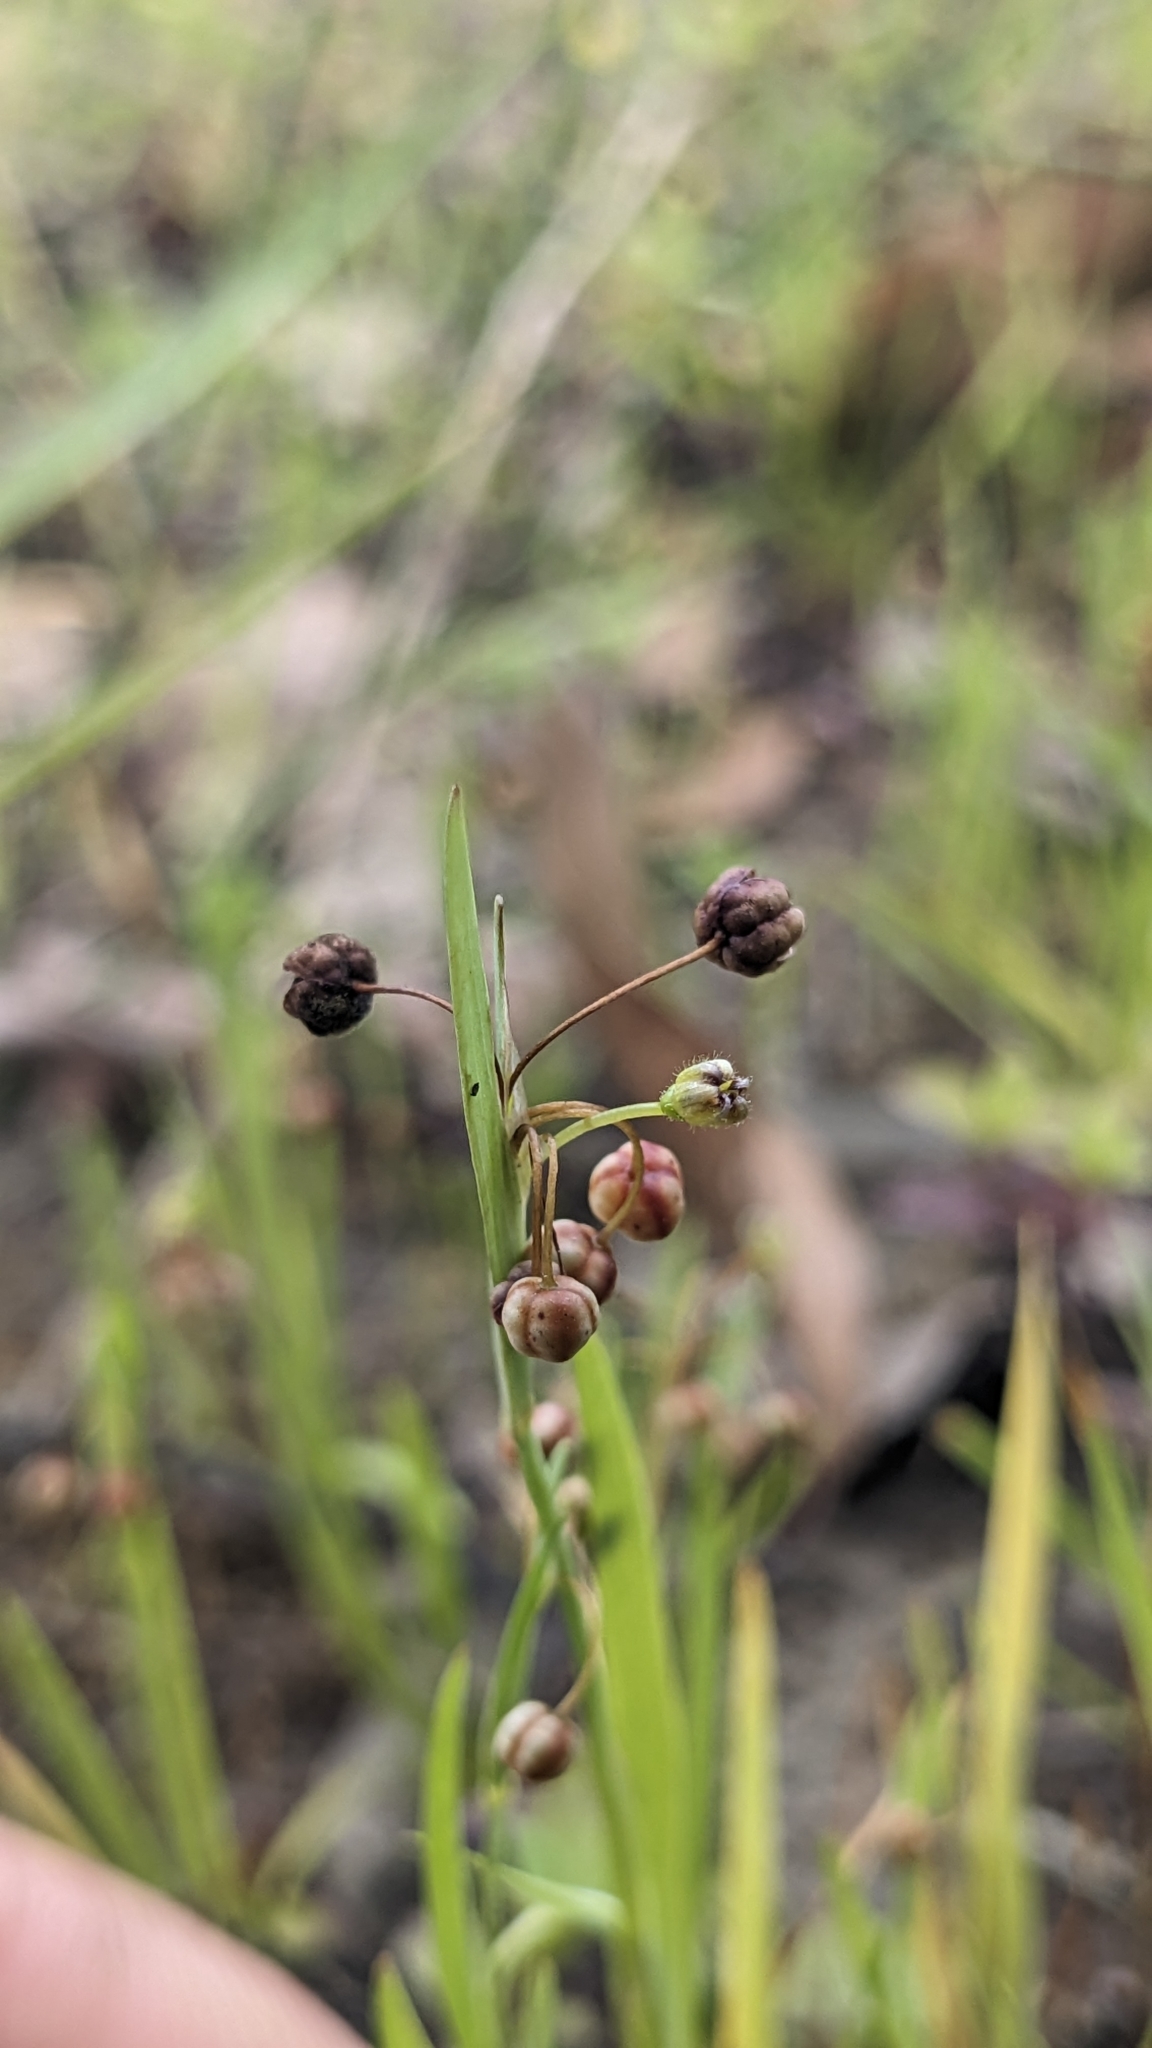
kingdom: Plantae
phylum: Tracheophyta
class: Liliopsida
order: Asparagales
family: Iridaceae
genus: Sisyrinchium
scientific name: Sisyrinchium micranthum
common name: Bermuda pigroot
